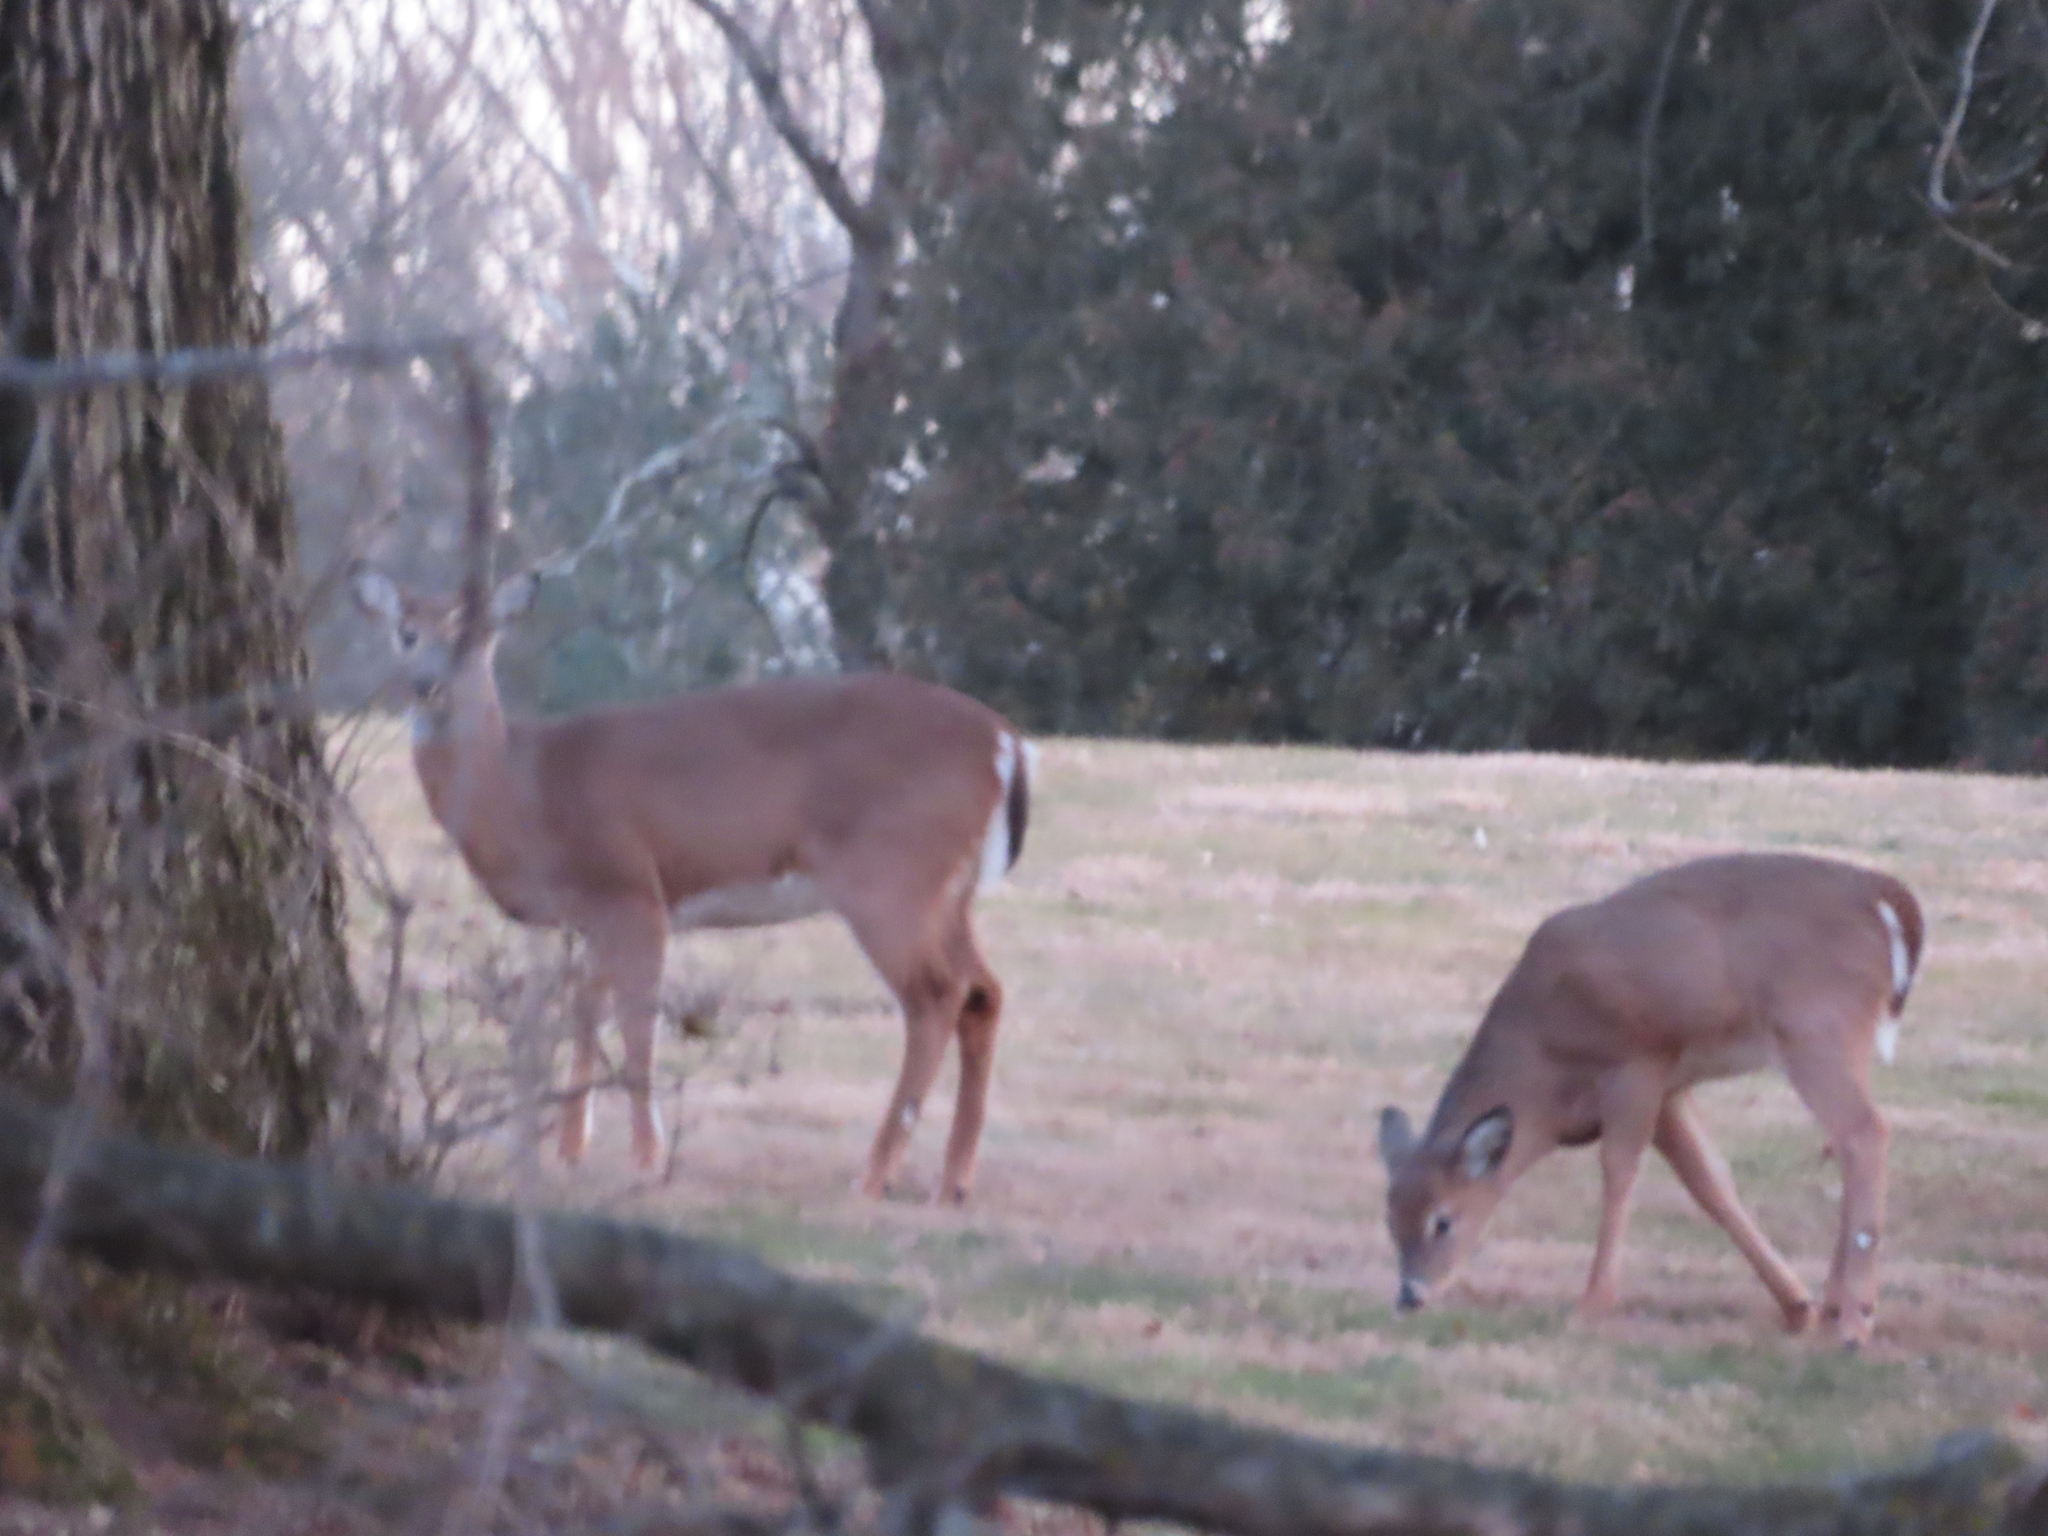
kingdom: Animalia
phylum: Chordata
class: Mammalia
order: Artiodactyla
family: Cervidae
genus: Odocoileus
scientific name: Odocoileus virginianus
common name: White-tailed deer
